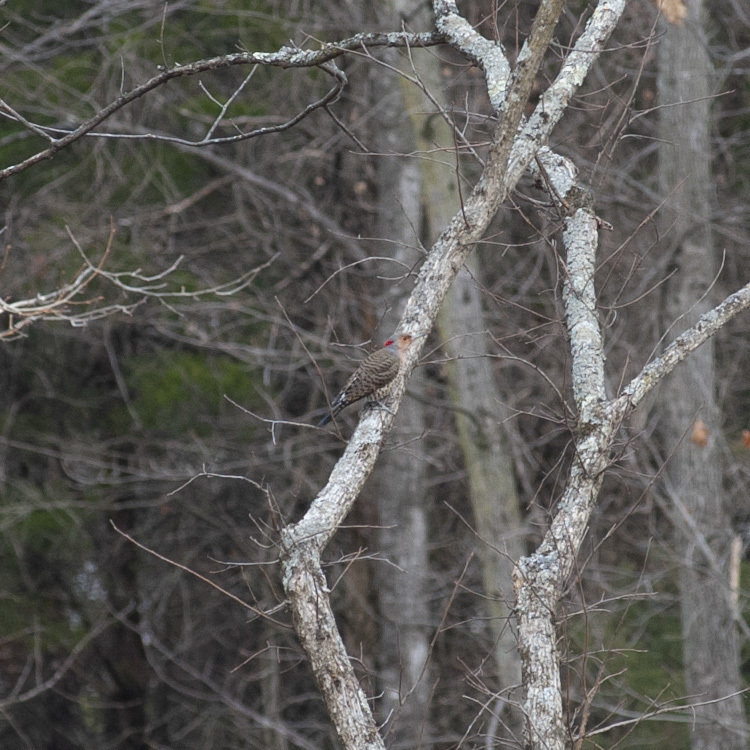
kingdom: Animalia
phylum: Chordata
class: Aves
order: Piciformes
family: Picidae
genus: Colaptes
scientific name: Colaptes auratus
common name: Northern flicker
